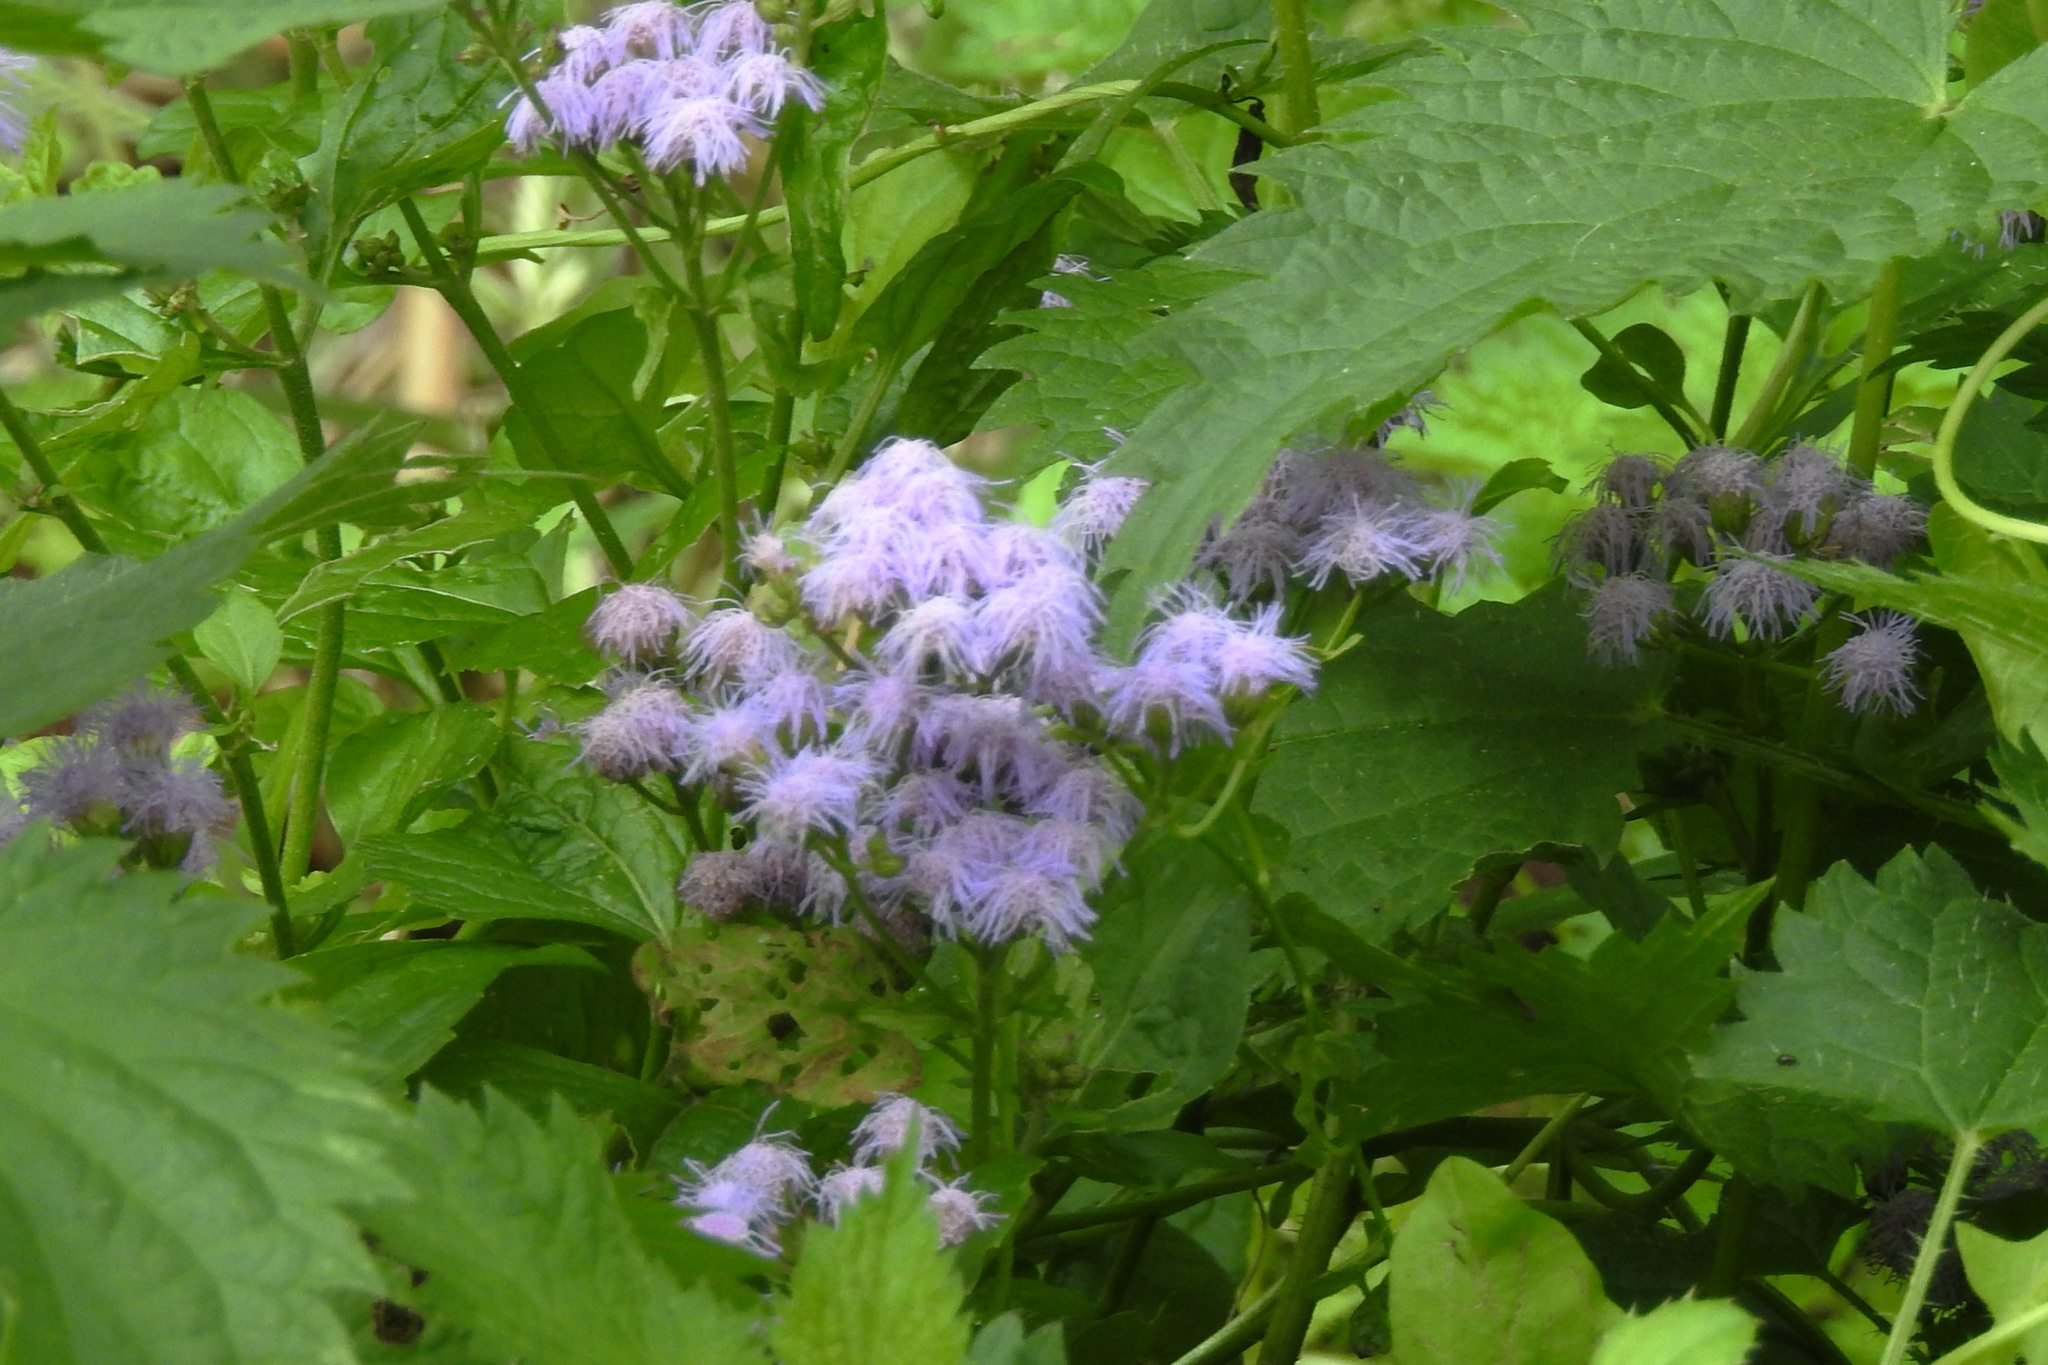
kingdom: Plantae
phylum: Tracheophyta
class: Magnoliopsida
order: Asterales
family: Asteraceae
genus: Conoclinium
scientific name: Conoclinium coelestinum
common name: Blue mistflower
